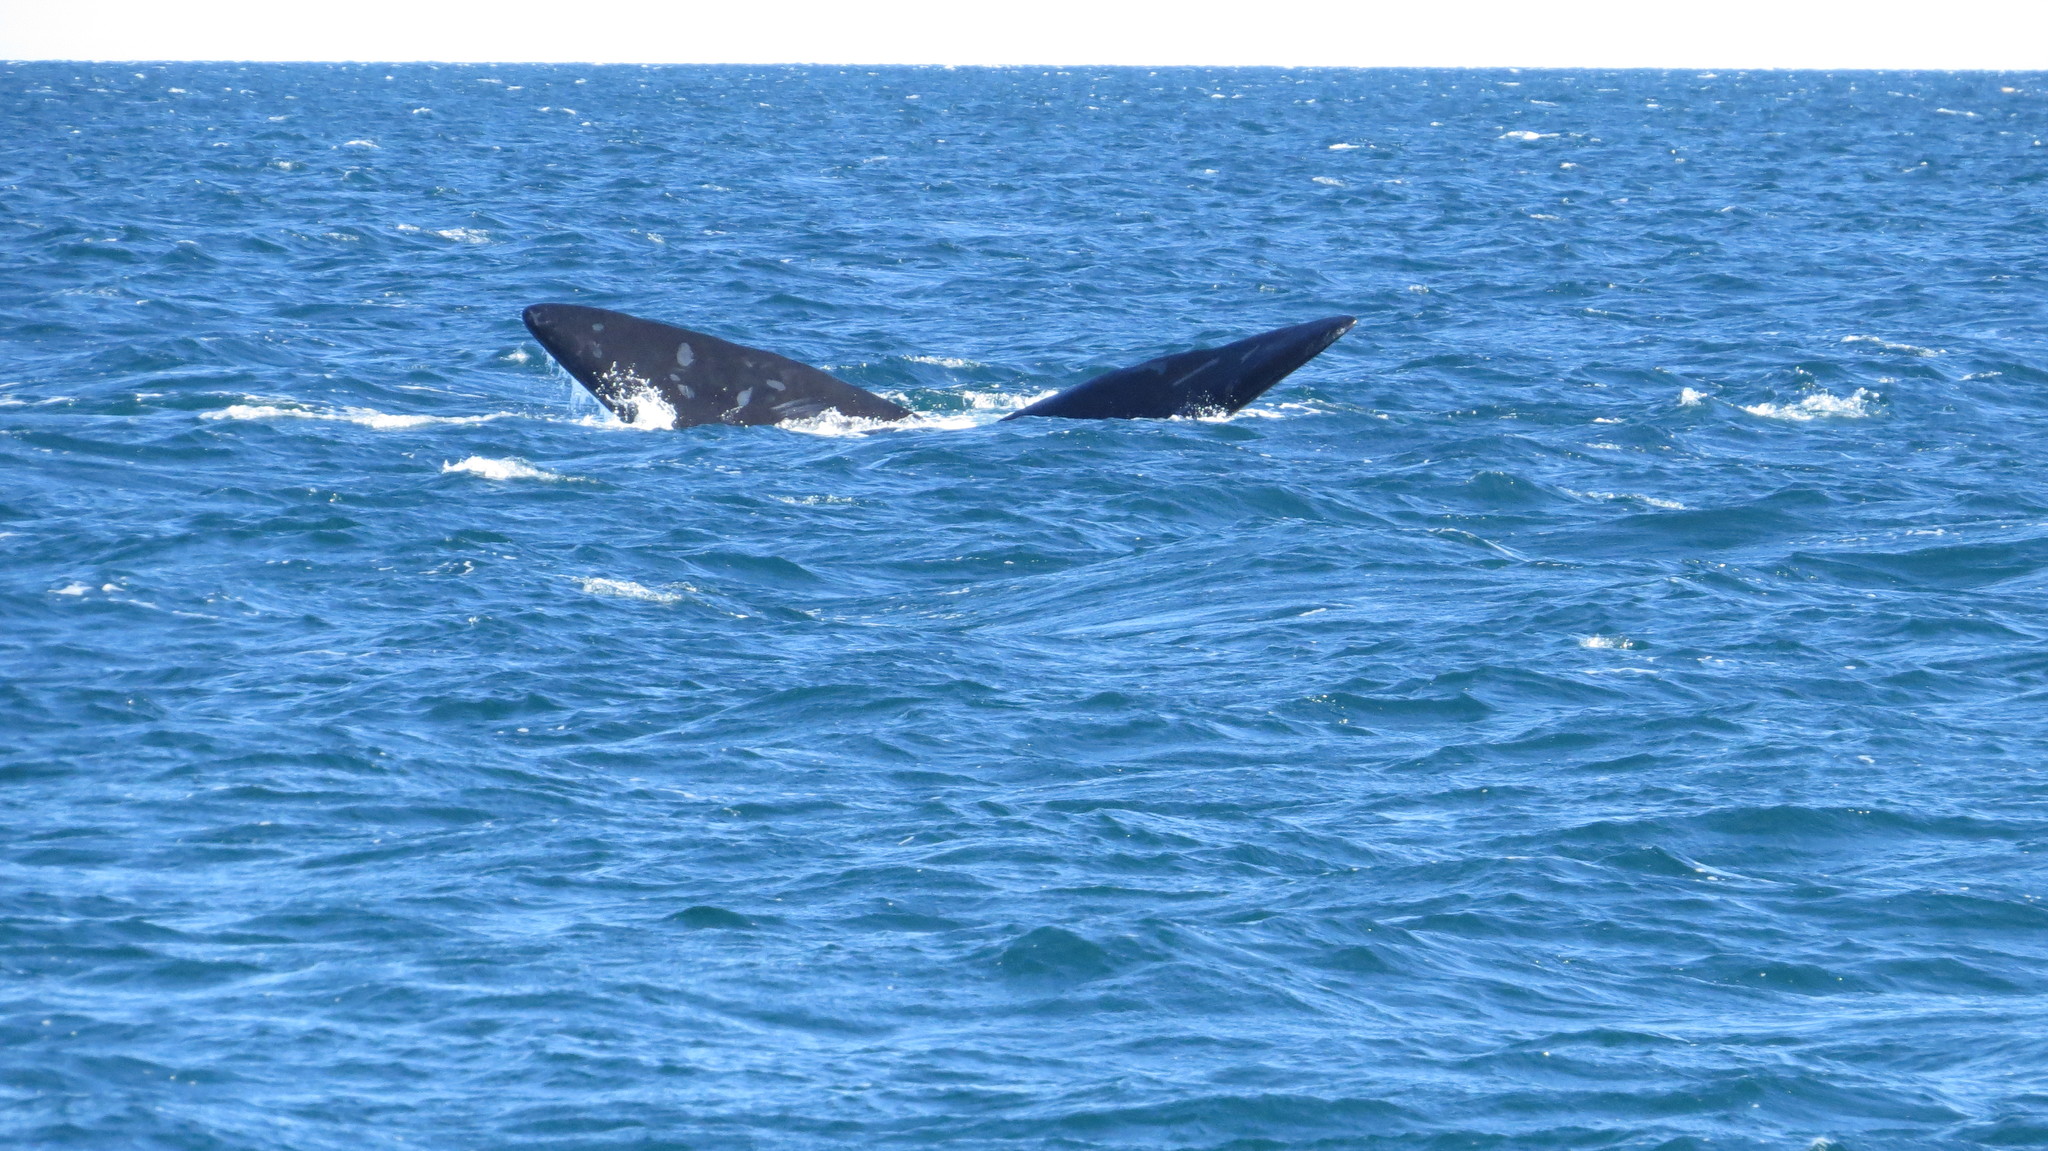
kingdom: Animalia
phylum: Chordata
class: Mammalia
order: Cetacea
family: Balaenidae
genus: Eubalaena
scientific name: Eubalaena australis
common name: Southern right whale
